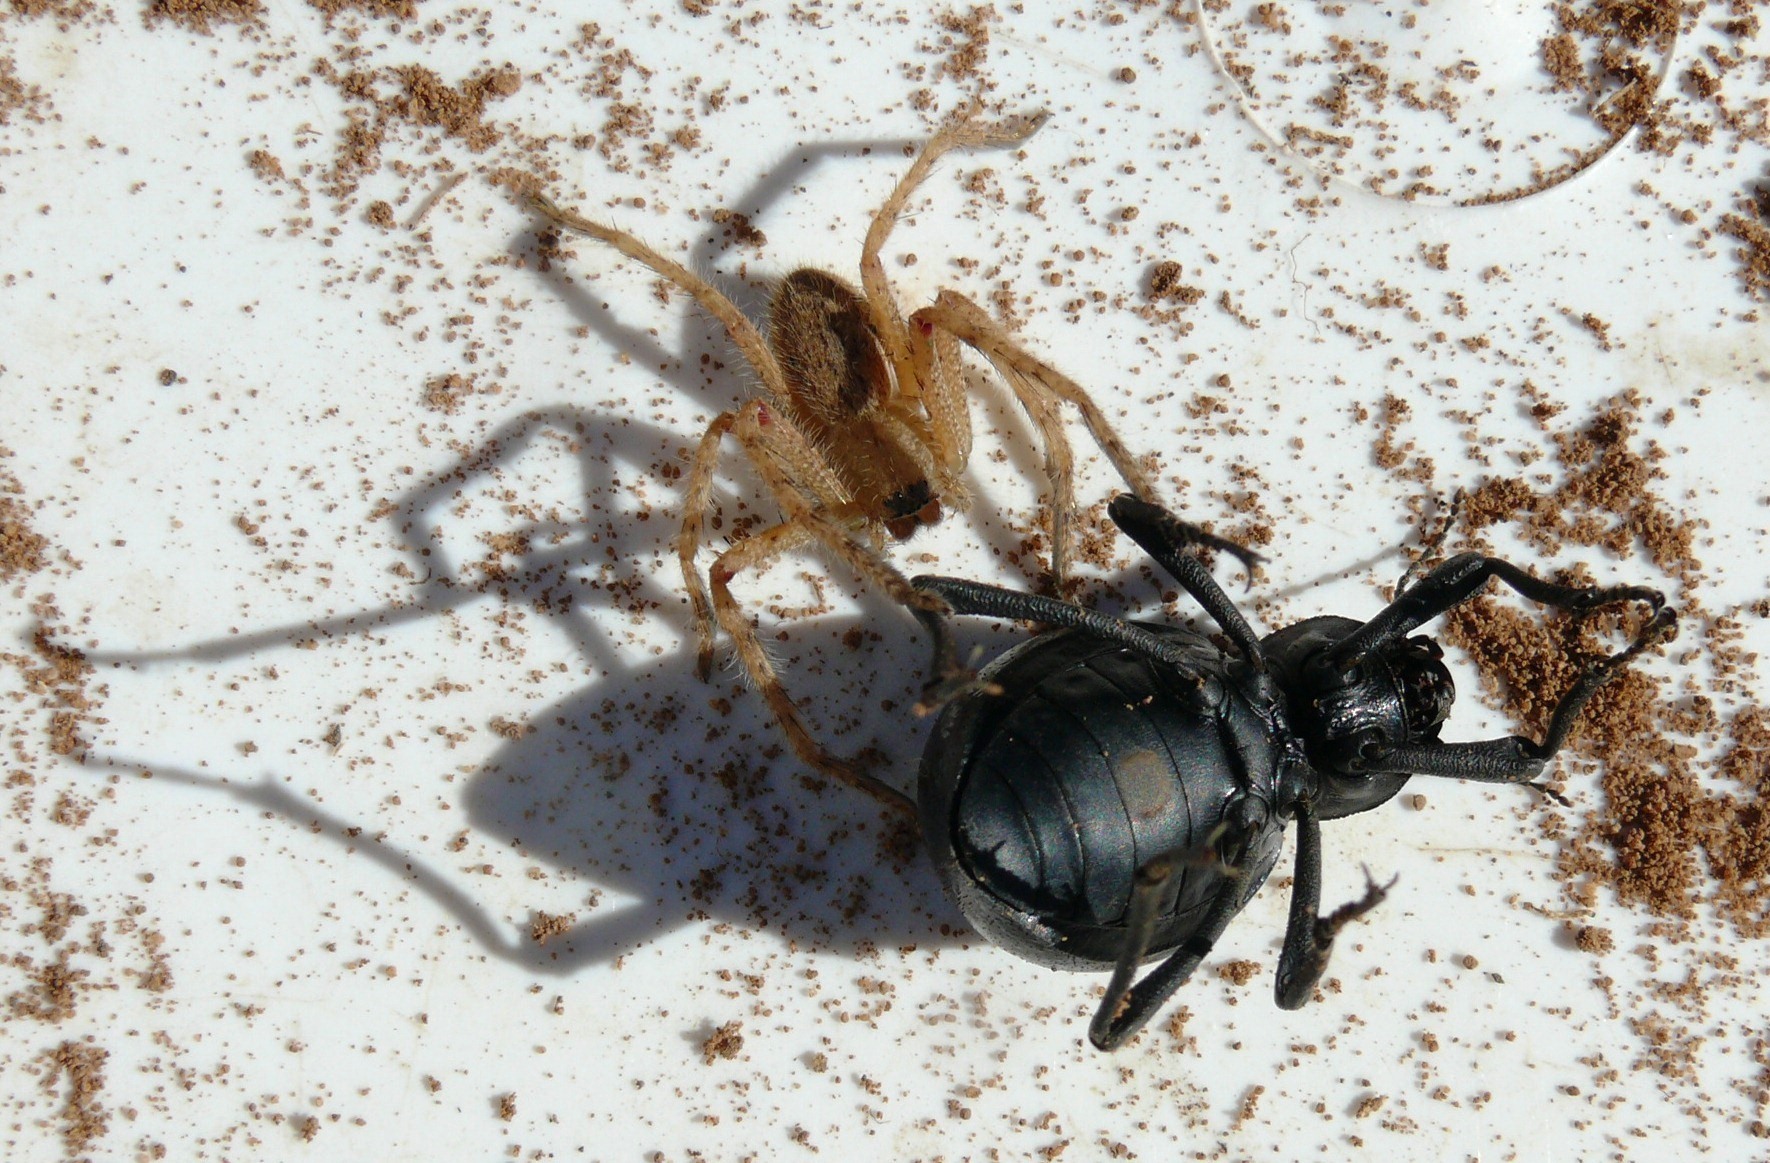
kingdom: Animalia
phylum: Arthropoda
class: Arachnida
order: Araneae
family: Sparassidae
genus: Palystes
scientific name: Palystes martinfilmeri
